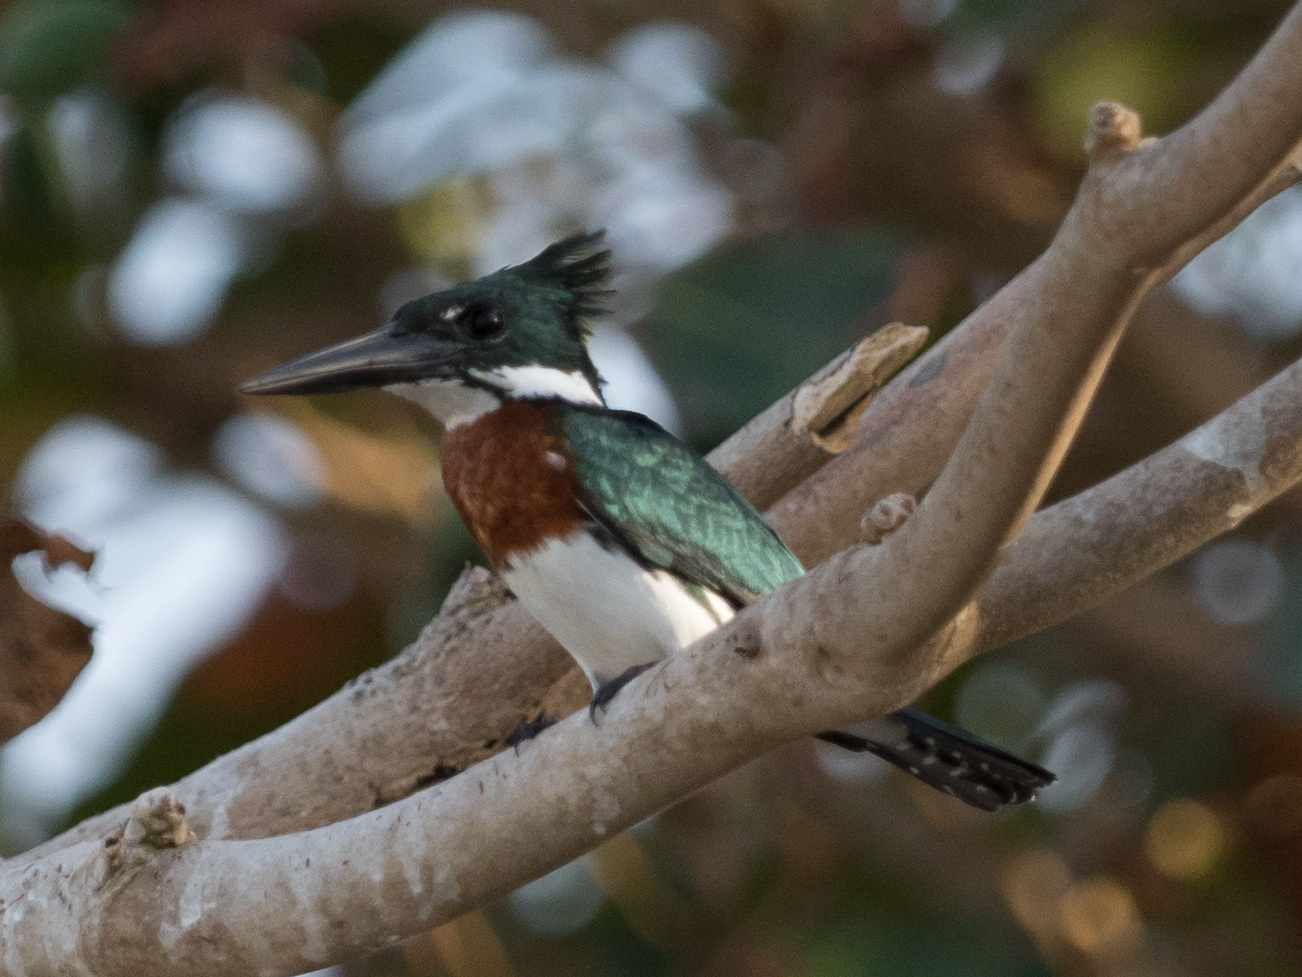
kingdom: Animalia
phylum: Chordata
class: Aves
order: Coraciiformes
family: Alcedinidae
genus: Chloroceryle
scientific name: Chloroceryle amazona
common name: Amazon kingfisher
